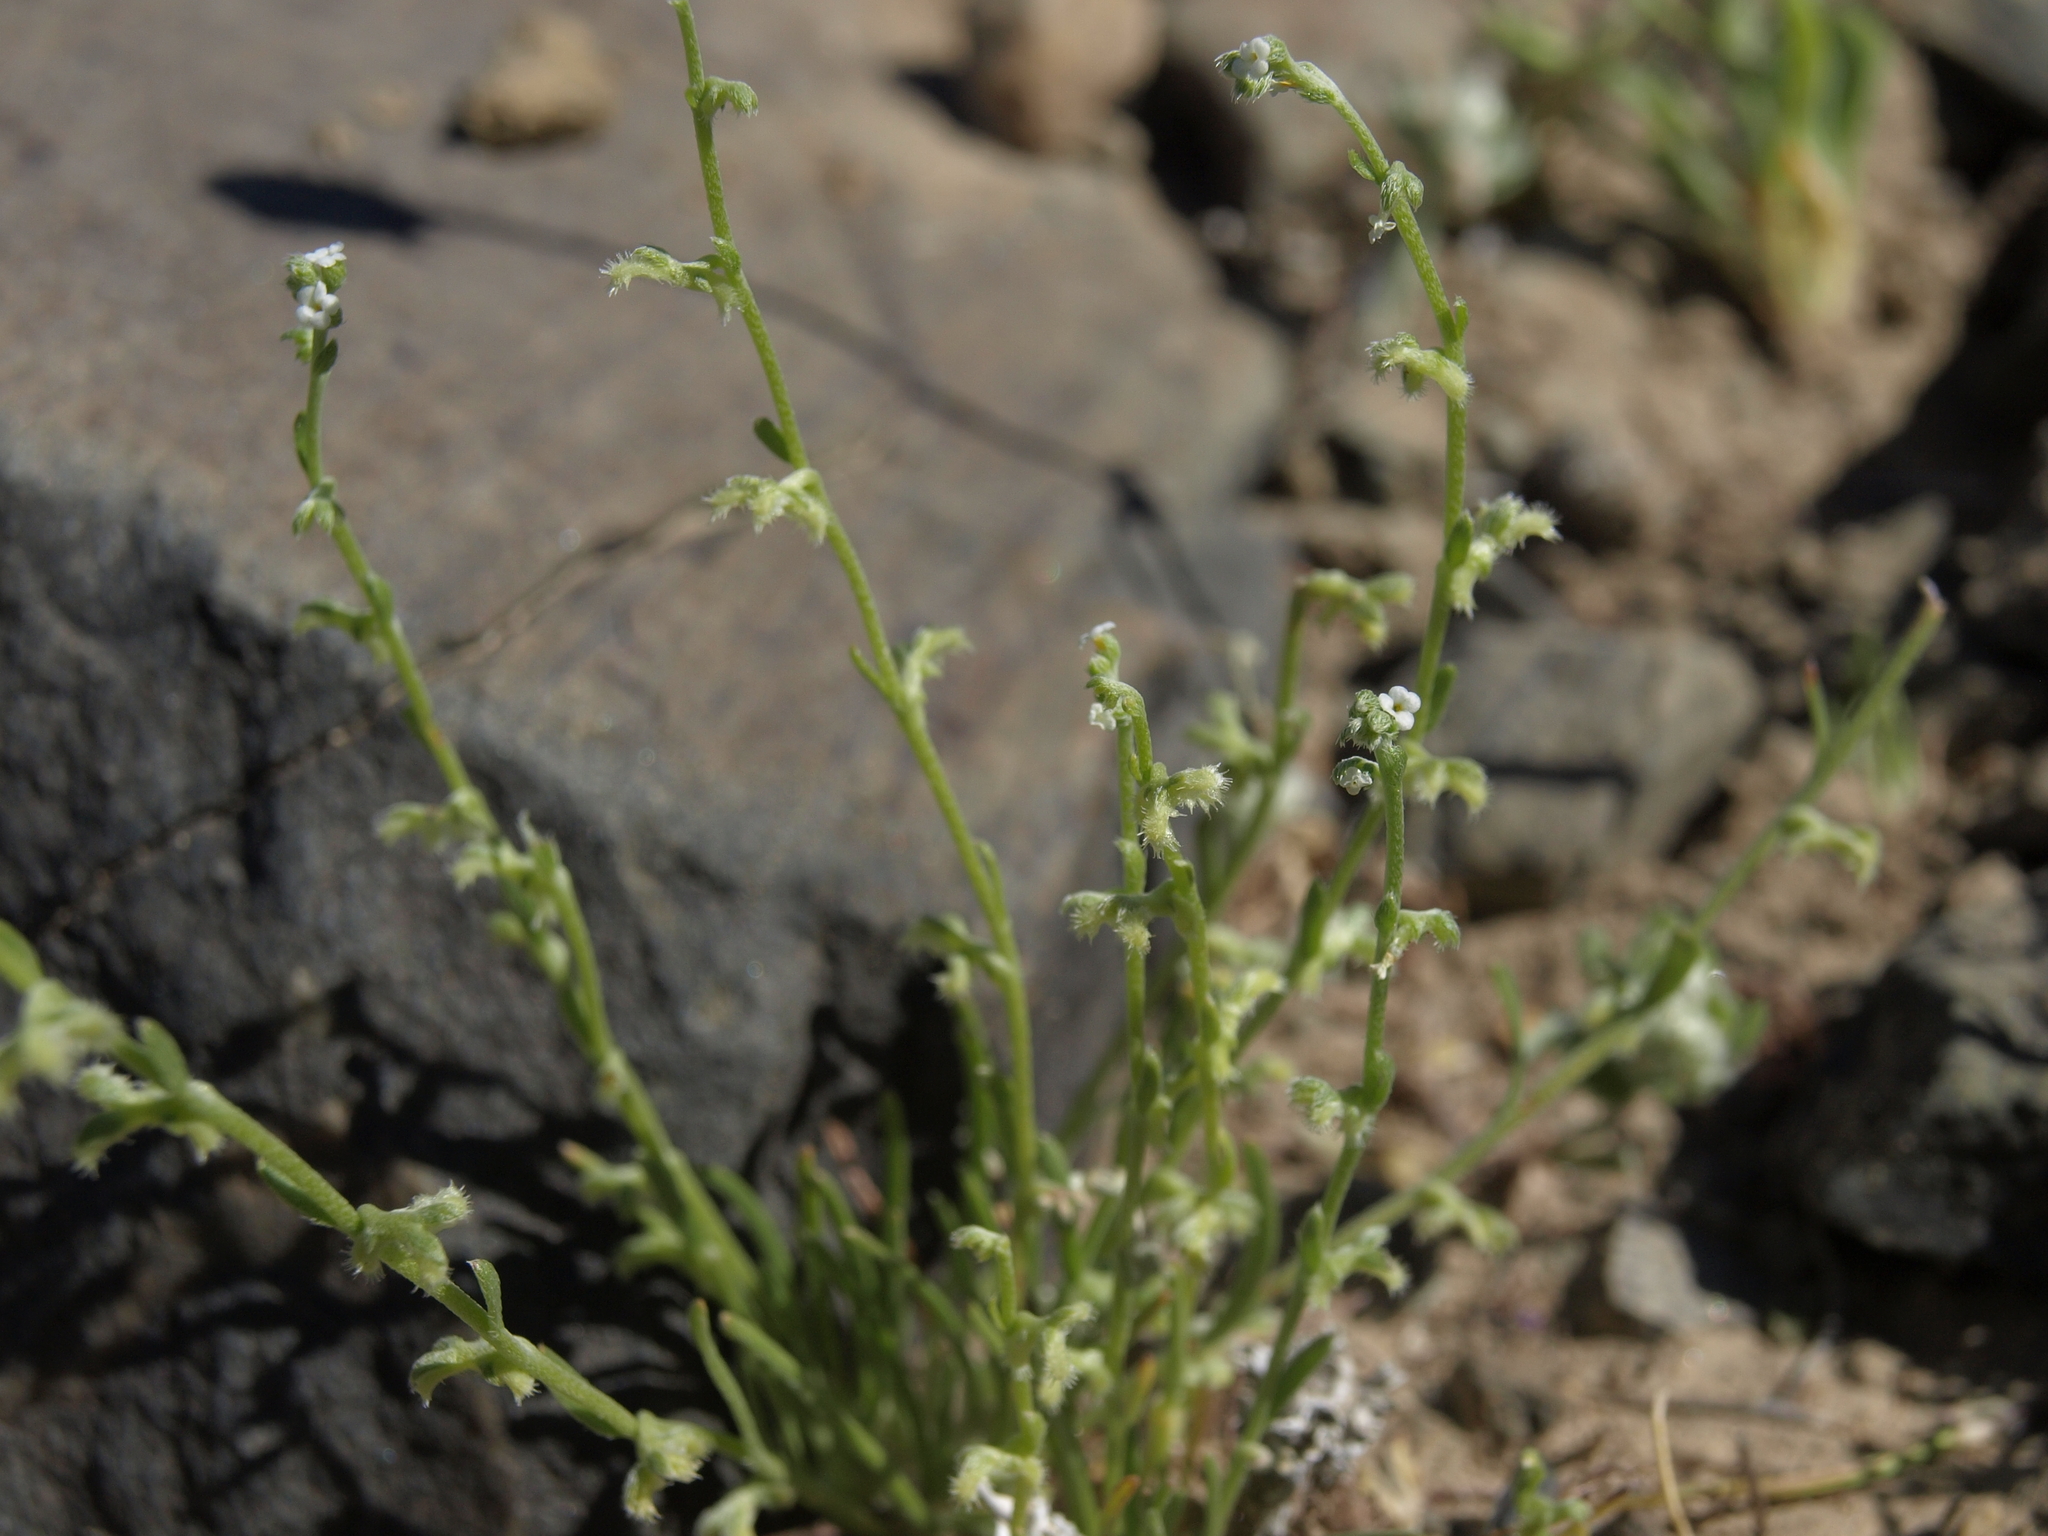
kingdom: Plantae
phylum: Tracheophyta
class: Magnoliopsida
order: Boraginales
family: Boraginaceae
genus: Pectocarya
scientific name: Pectocarya heterocarpa
